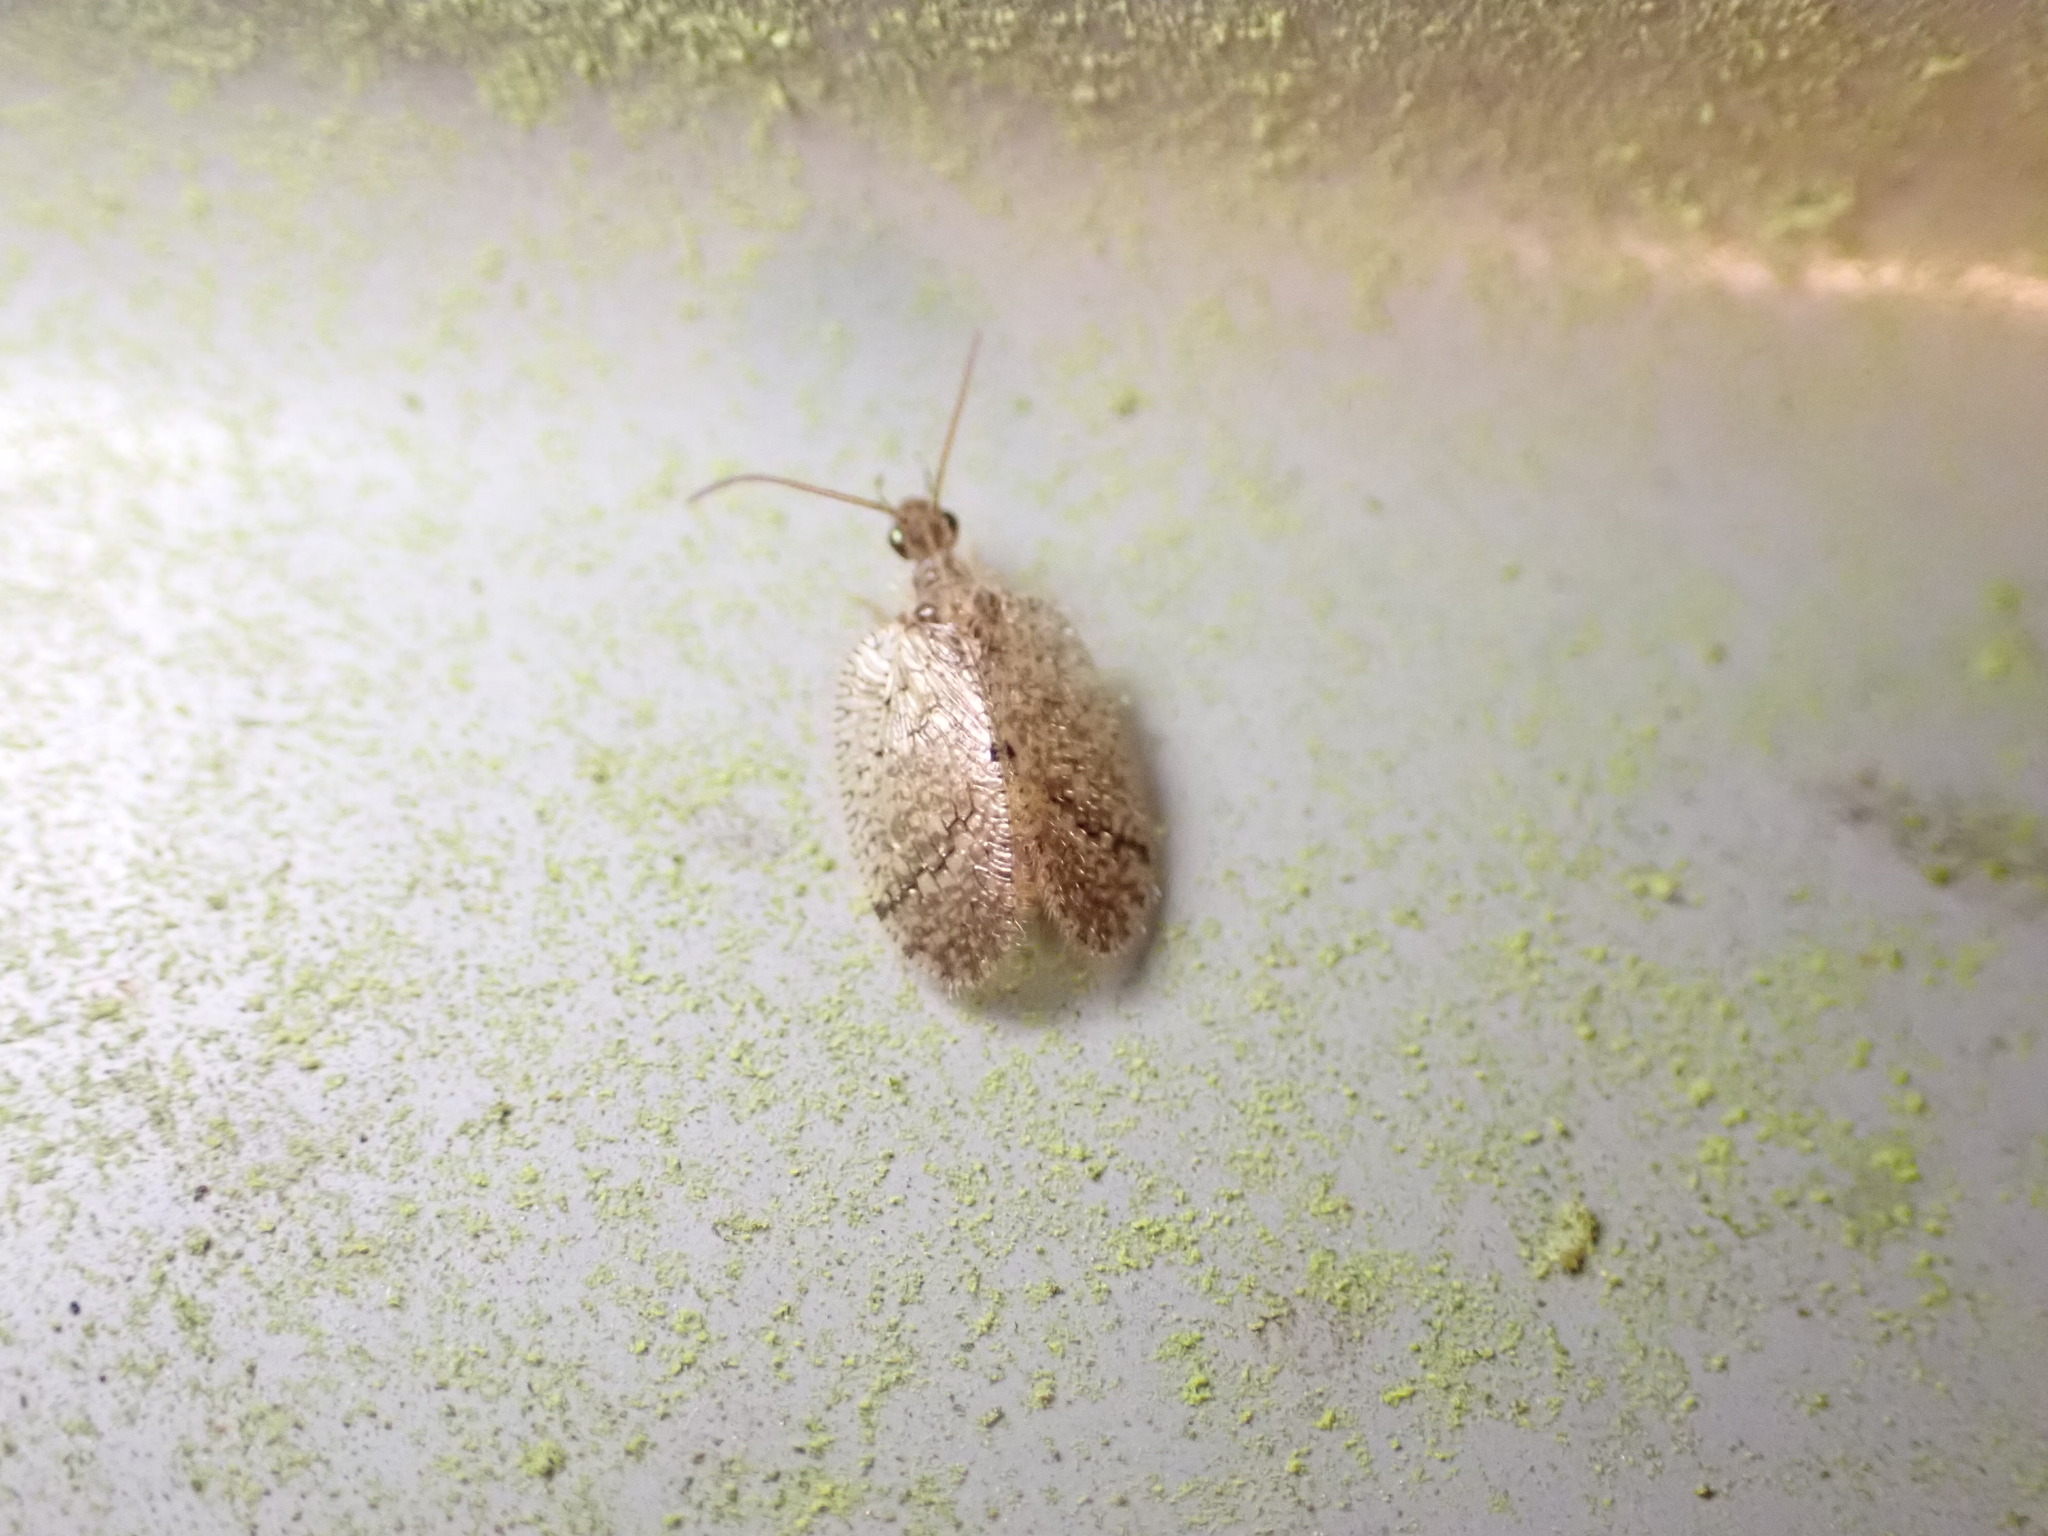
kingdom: Animalia
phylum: Arthropoda
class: Insecta
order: Neuroptera
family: Hemerobiidae
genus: Psectra
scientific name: Psectra nakaharai
